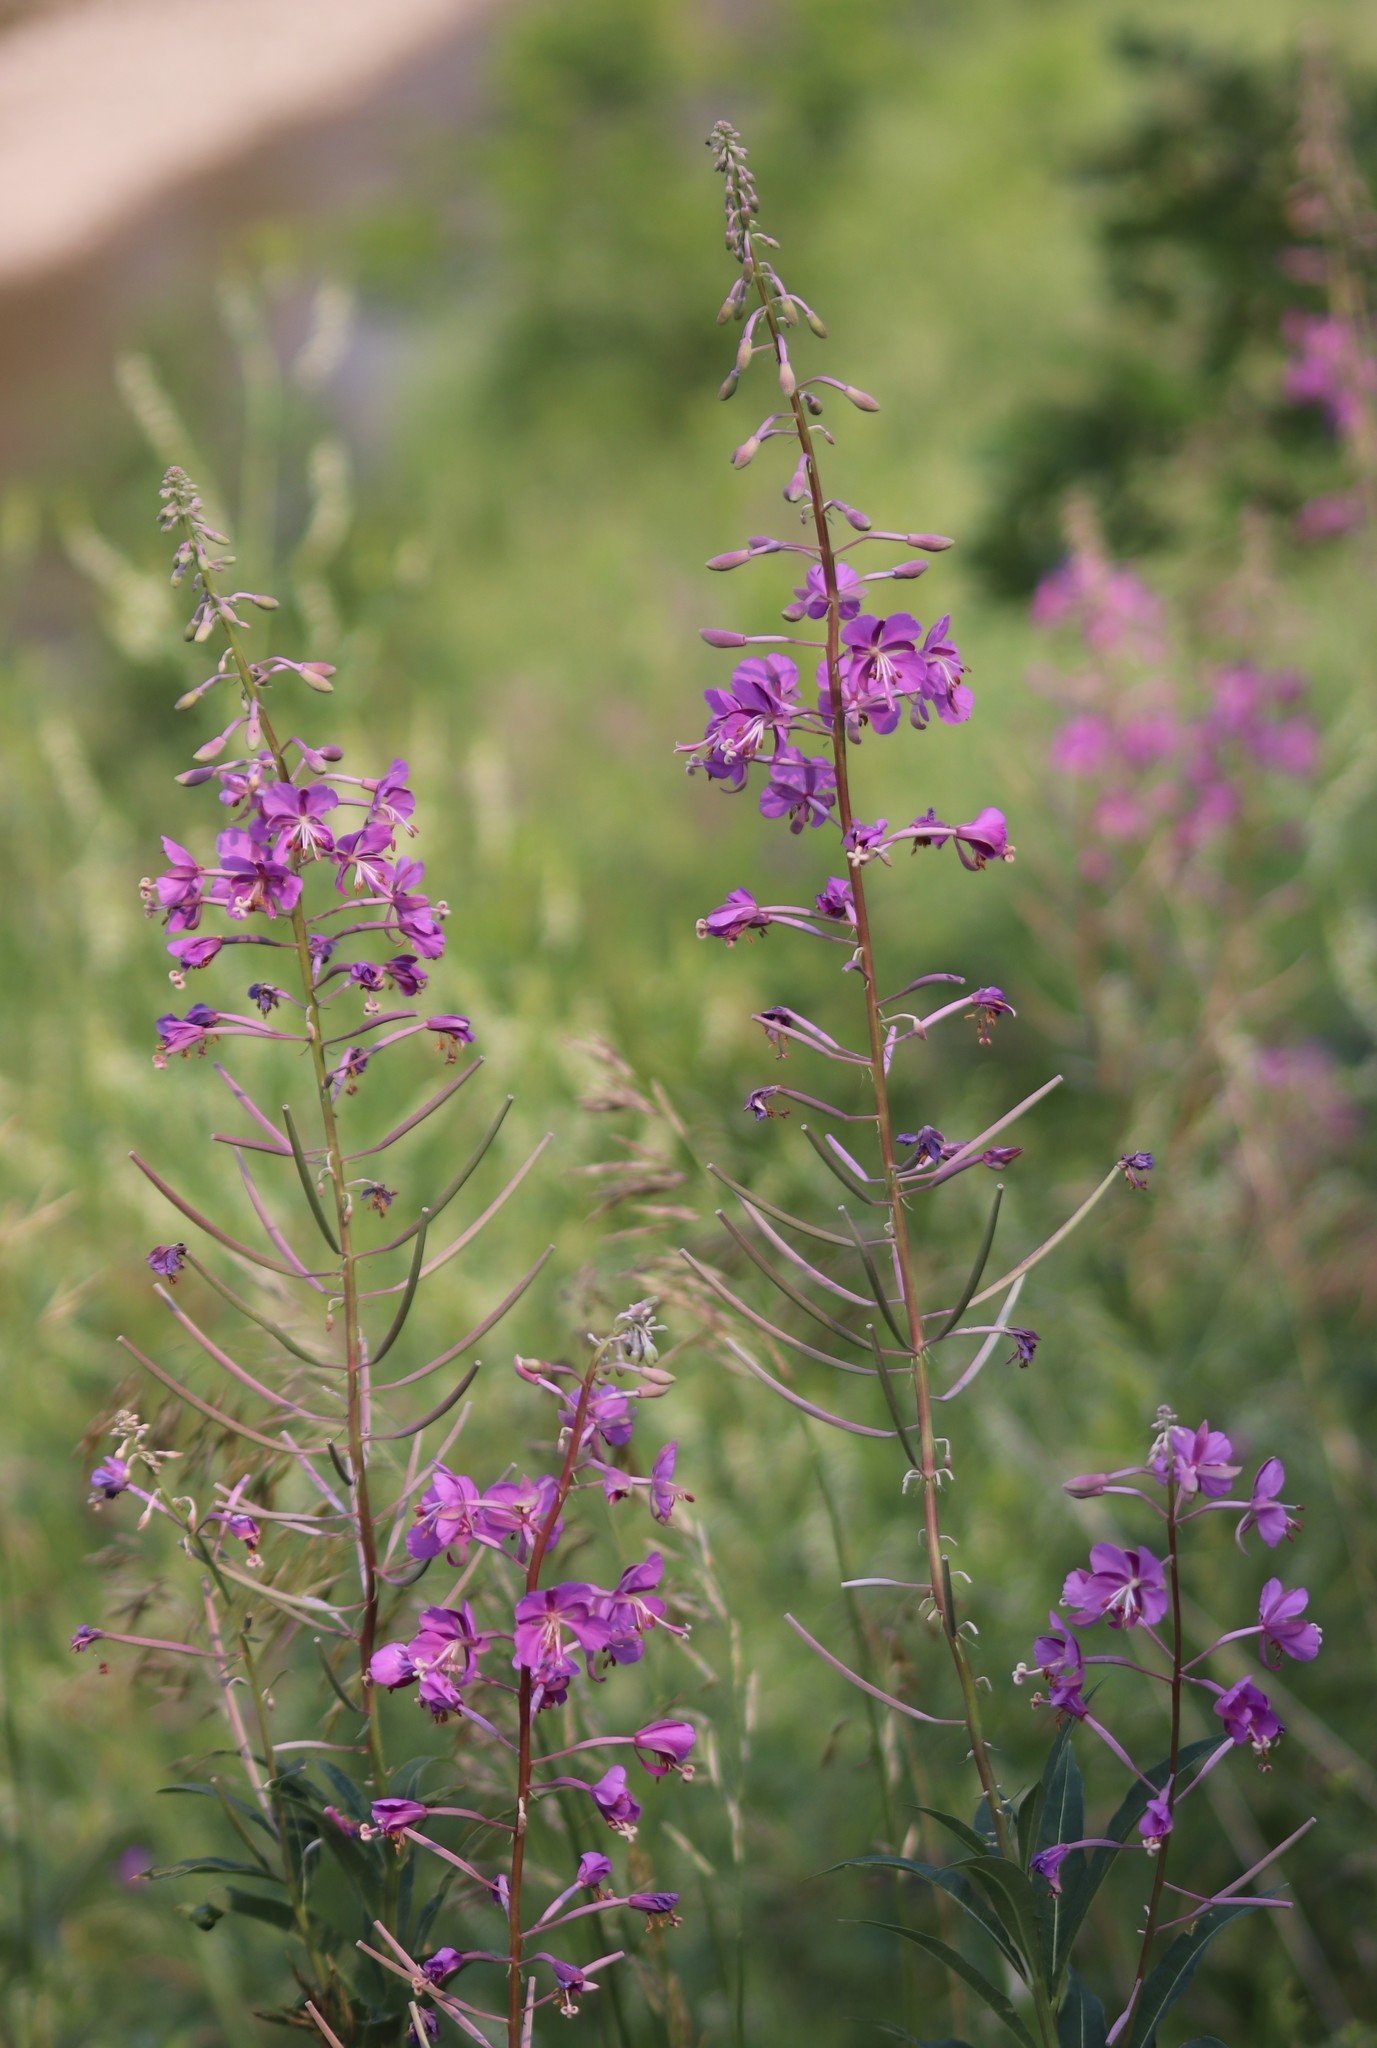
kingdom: Plantae
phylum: Tracheophyta
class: Magnoliopsida
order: Myrtales
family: Onagraceae
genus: Chamaenerion
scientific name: Chamaenerion angustifolium
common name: Fireweed
